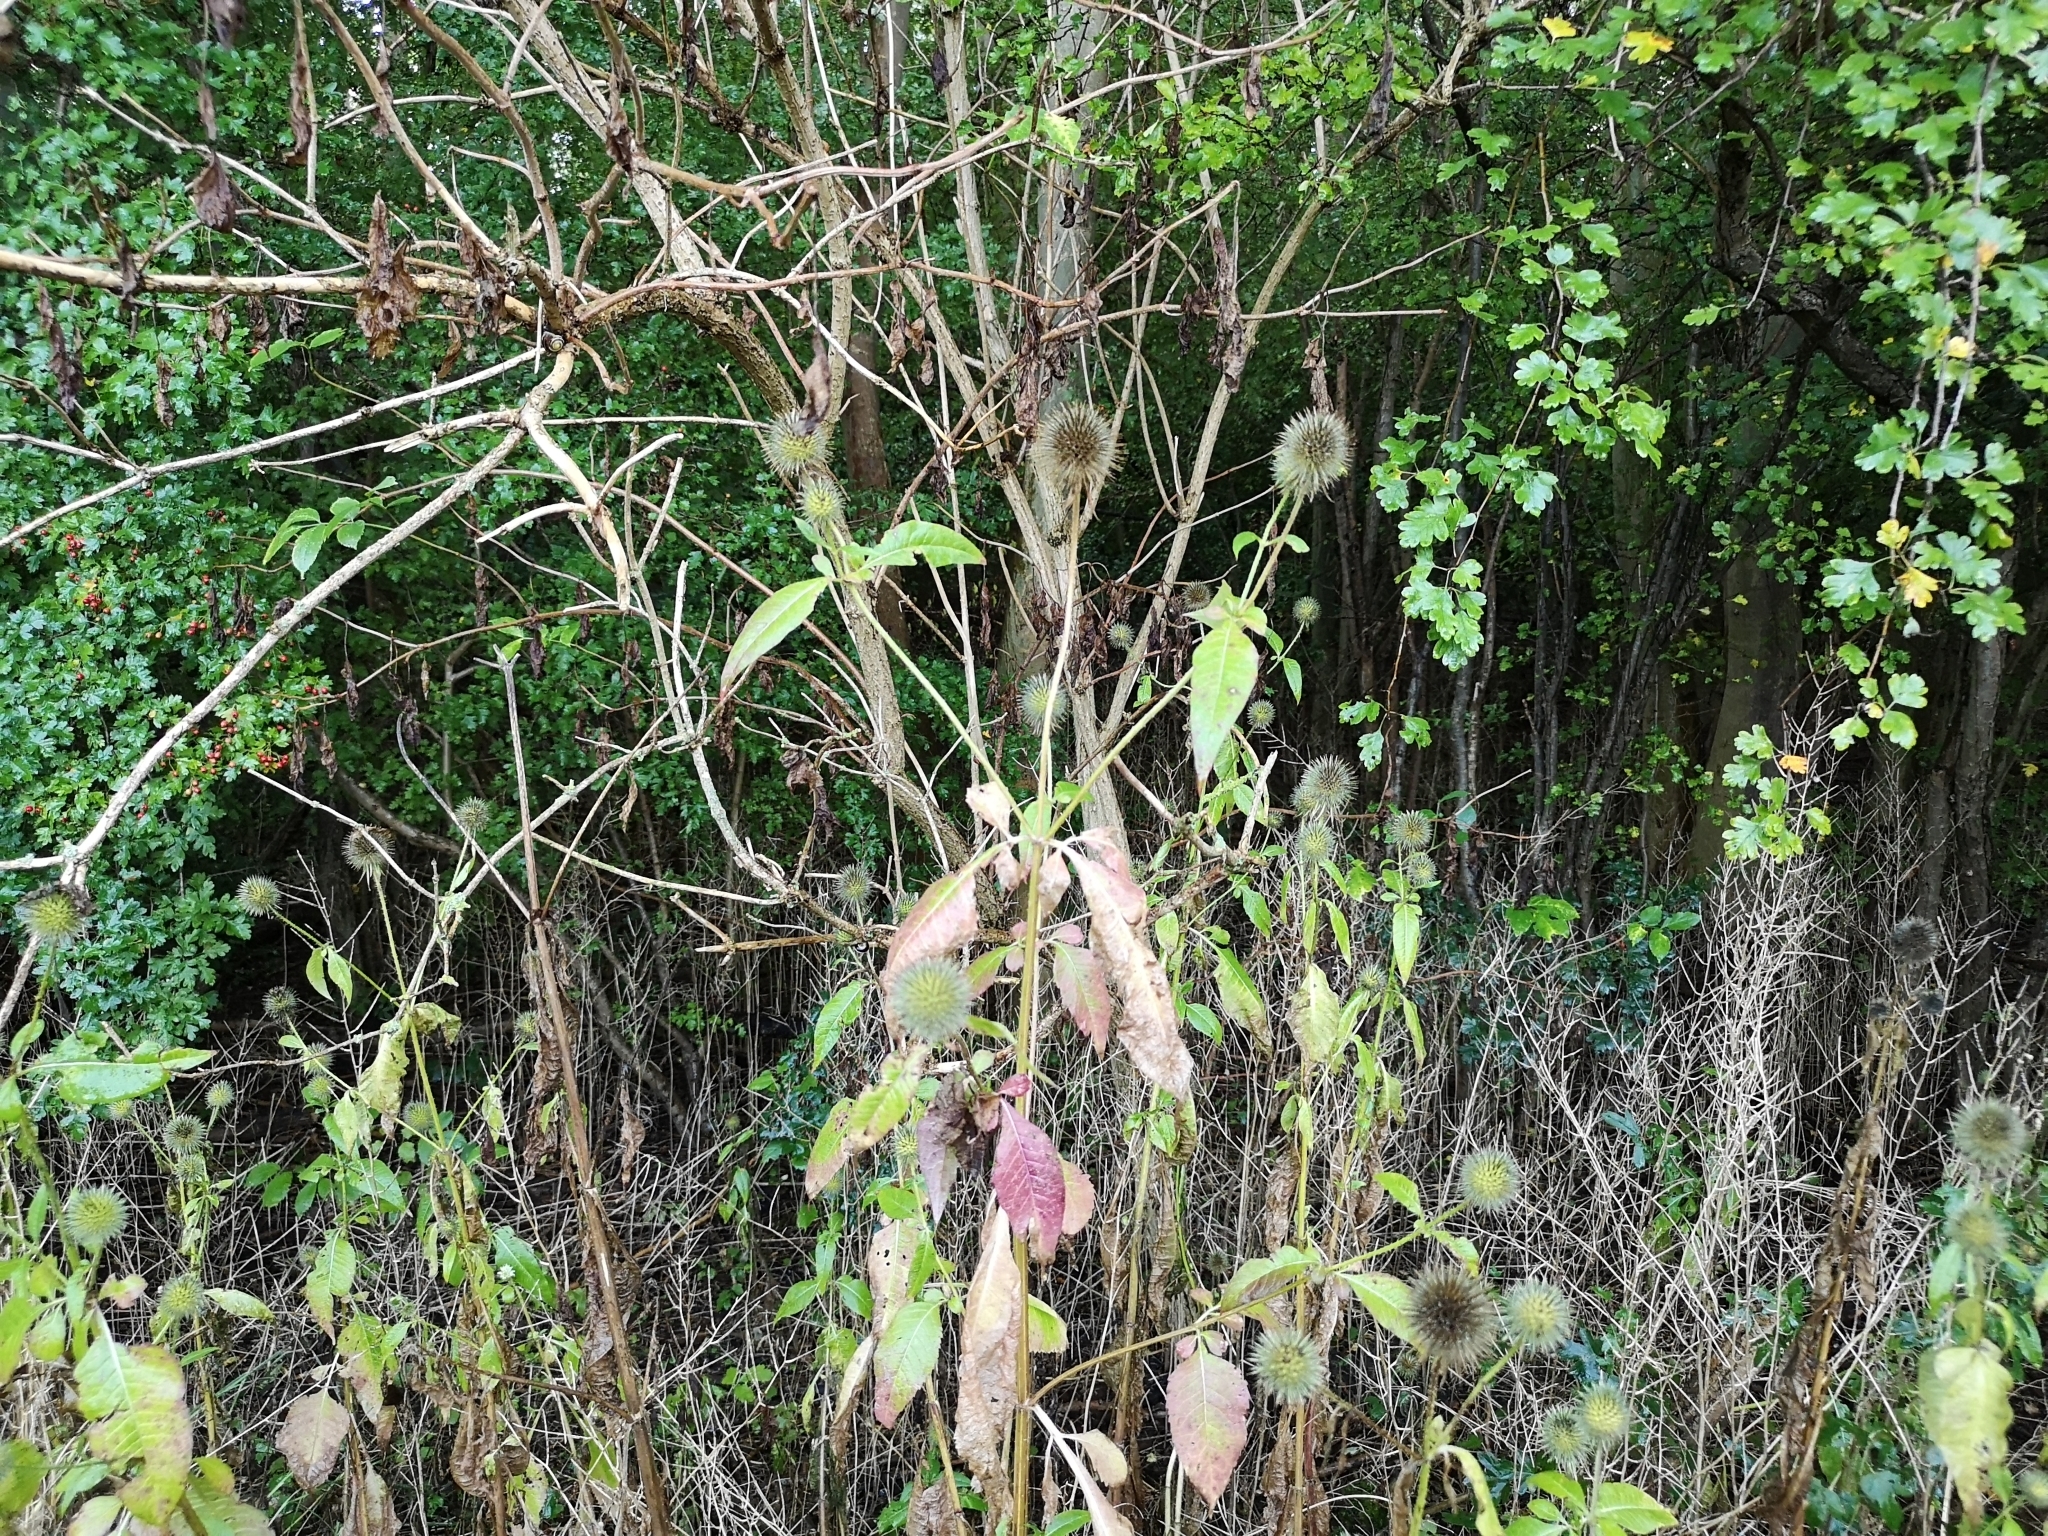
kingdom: Plantae
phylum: Tracheophyta
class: Magnoliopsida
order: Dipsacales
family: Caprifoliaceae
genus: Dipsacus
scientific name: Dipsacus strigosus
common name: Yellow-flowered teasel
